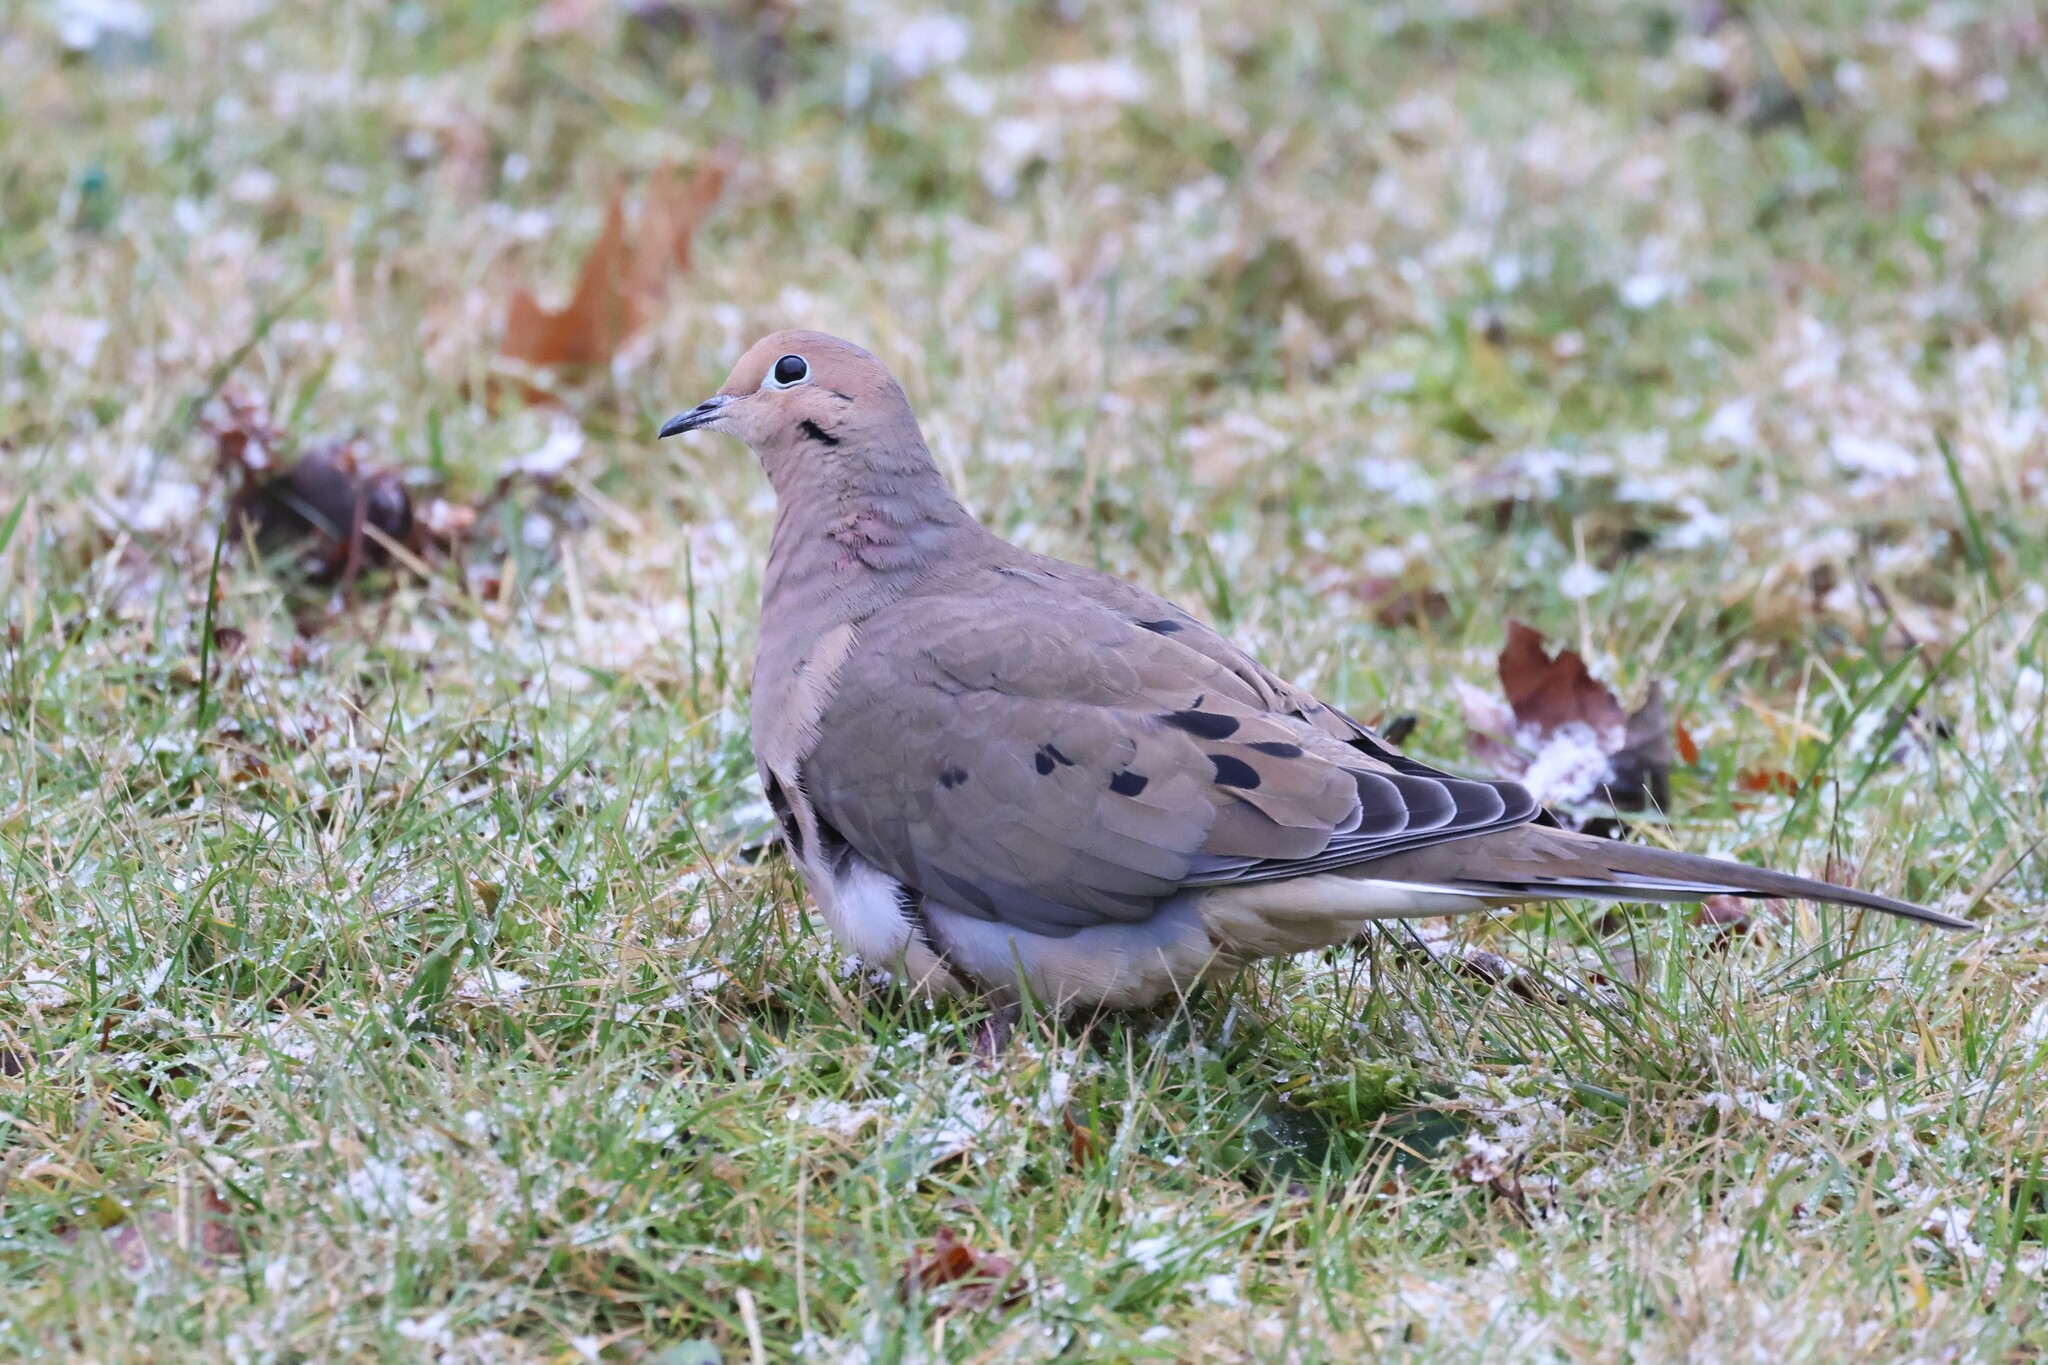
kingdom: Animalia
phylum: Chordata
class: Aves
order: Columbiformes
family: Columbidae
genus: Zenaida
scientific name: Zenaida macroura
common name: Mourning dove
